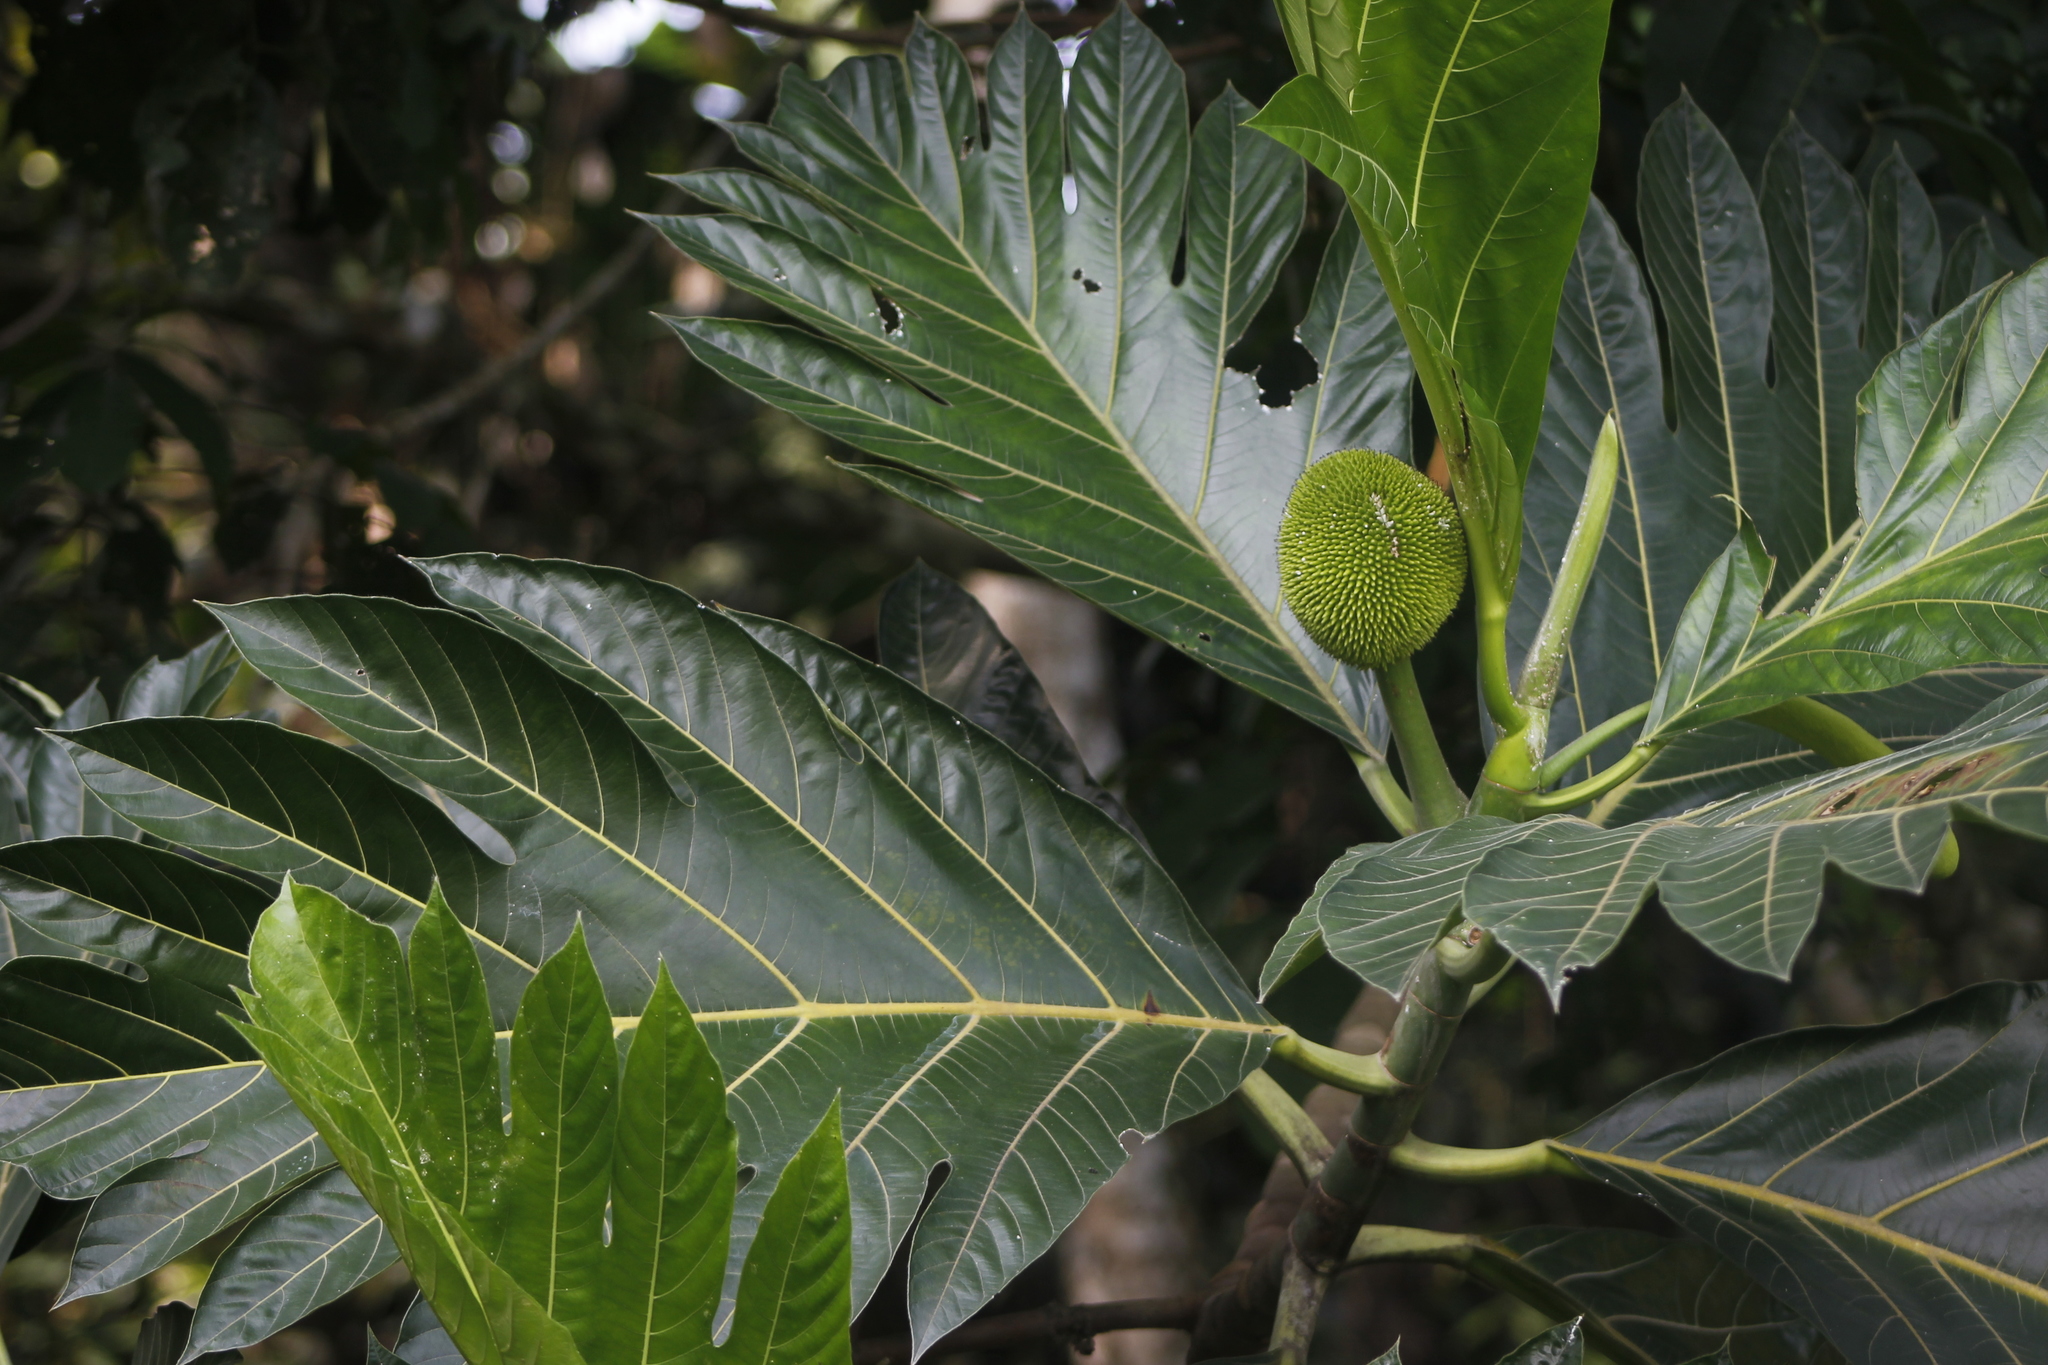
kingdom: Plantae
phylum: Tracheophyta
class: Magnoliopsida
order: Rosales
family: Moraceae
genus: Artocarpus
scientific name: Artocarpus altilis
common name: Breadfruit
